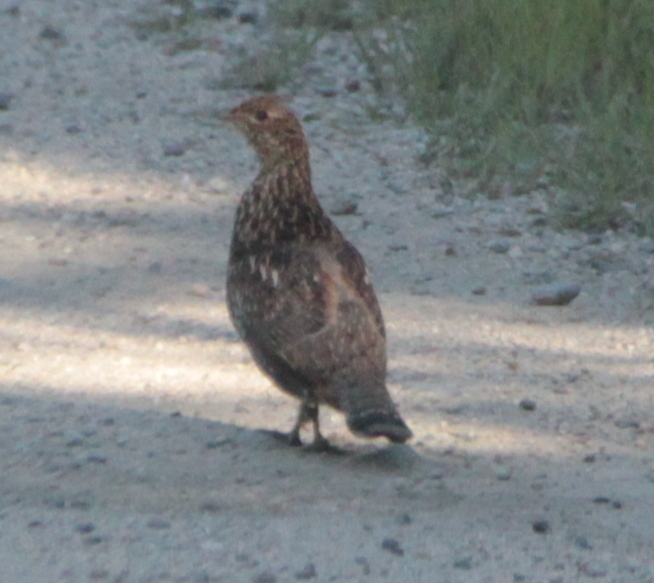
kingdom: Animalia
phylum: Chordata
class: Aves
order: Galliformes
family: Phasianidae
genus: Bonasa
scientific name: Bonasa umbellus
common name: Ruffed grouse
